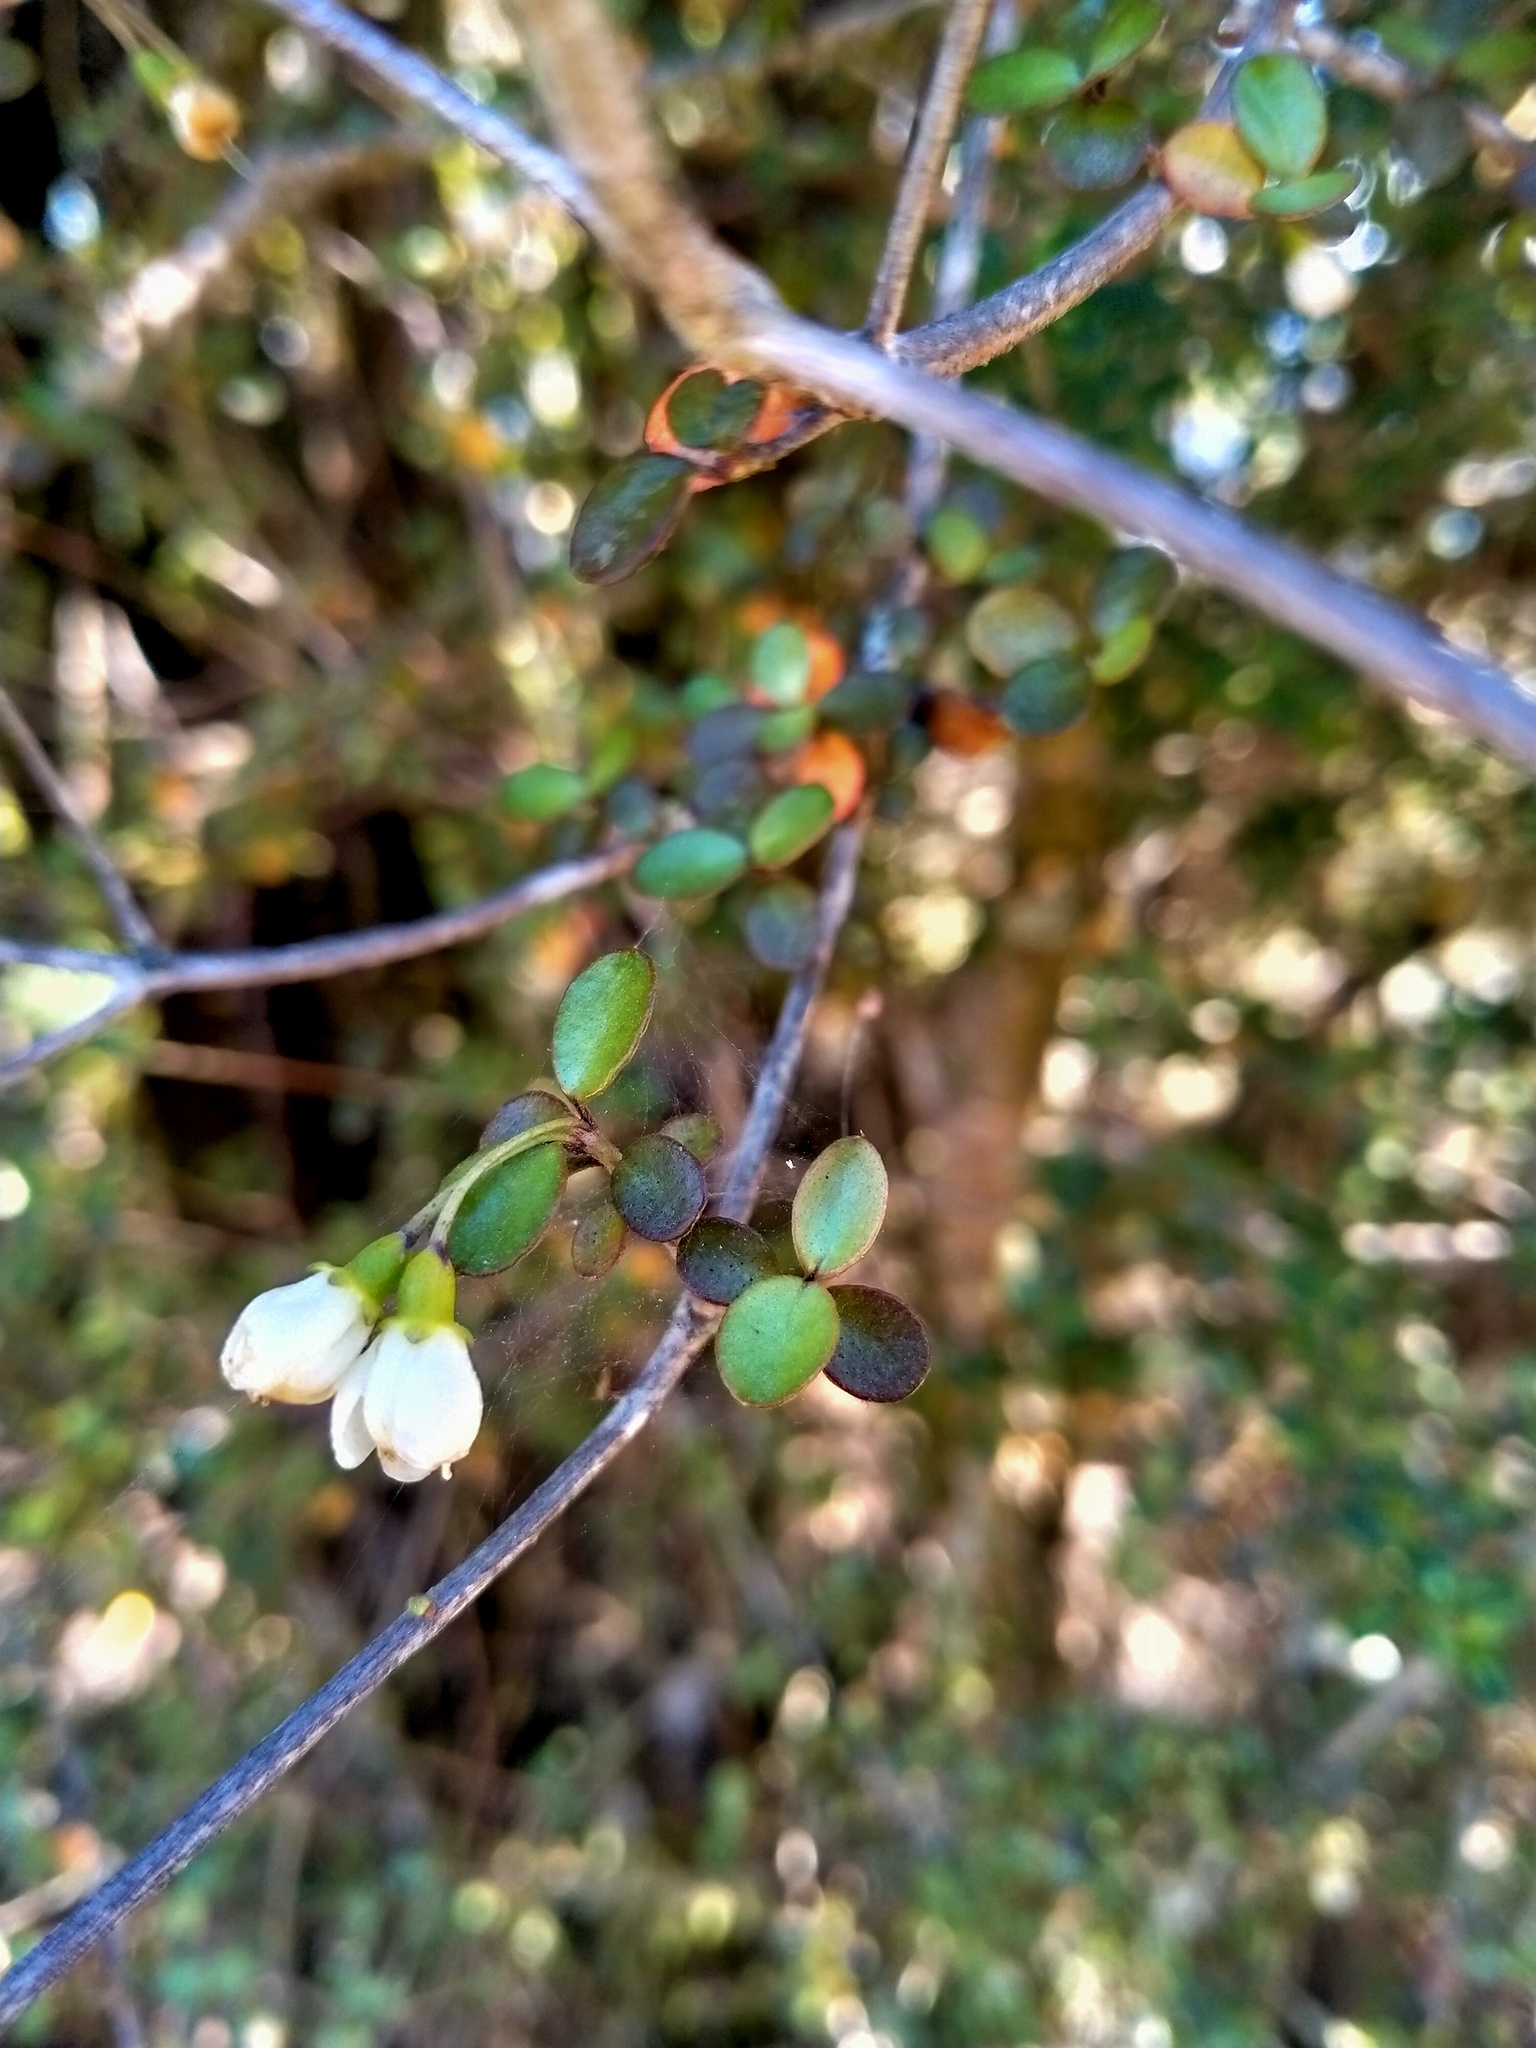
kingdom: Plantae
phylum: Tracheophyta
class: Magnoliopsida
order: Myrtales
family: Myrtaceae
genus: Neomyrtus
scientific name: Neomyrtus pedunculata
